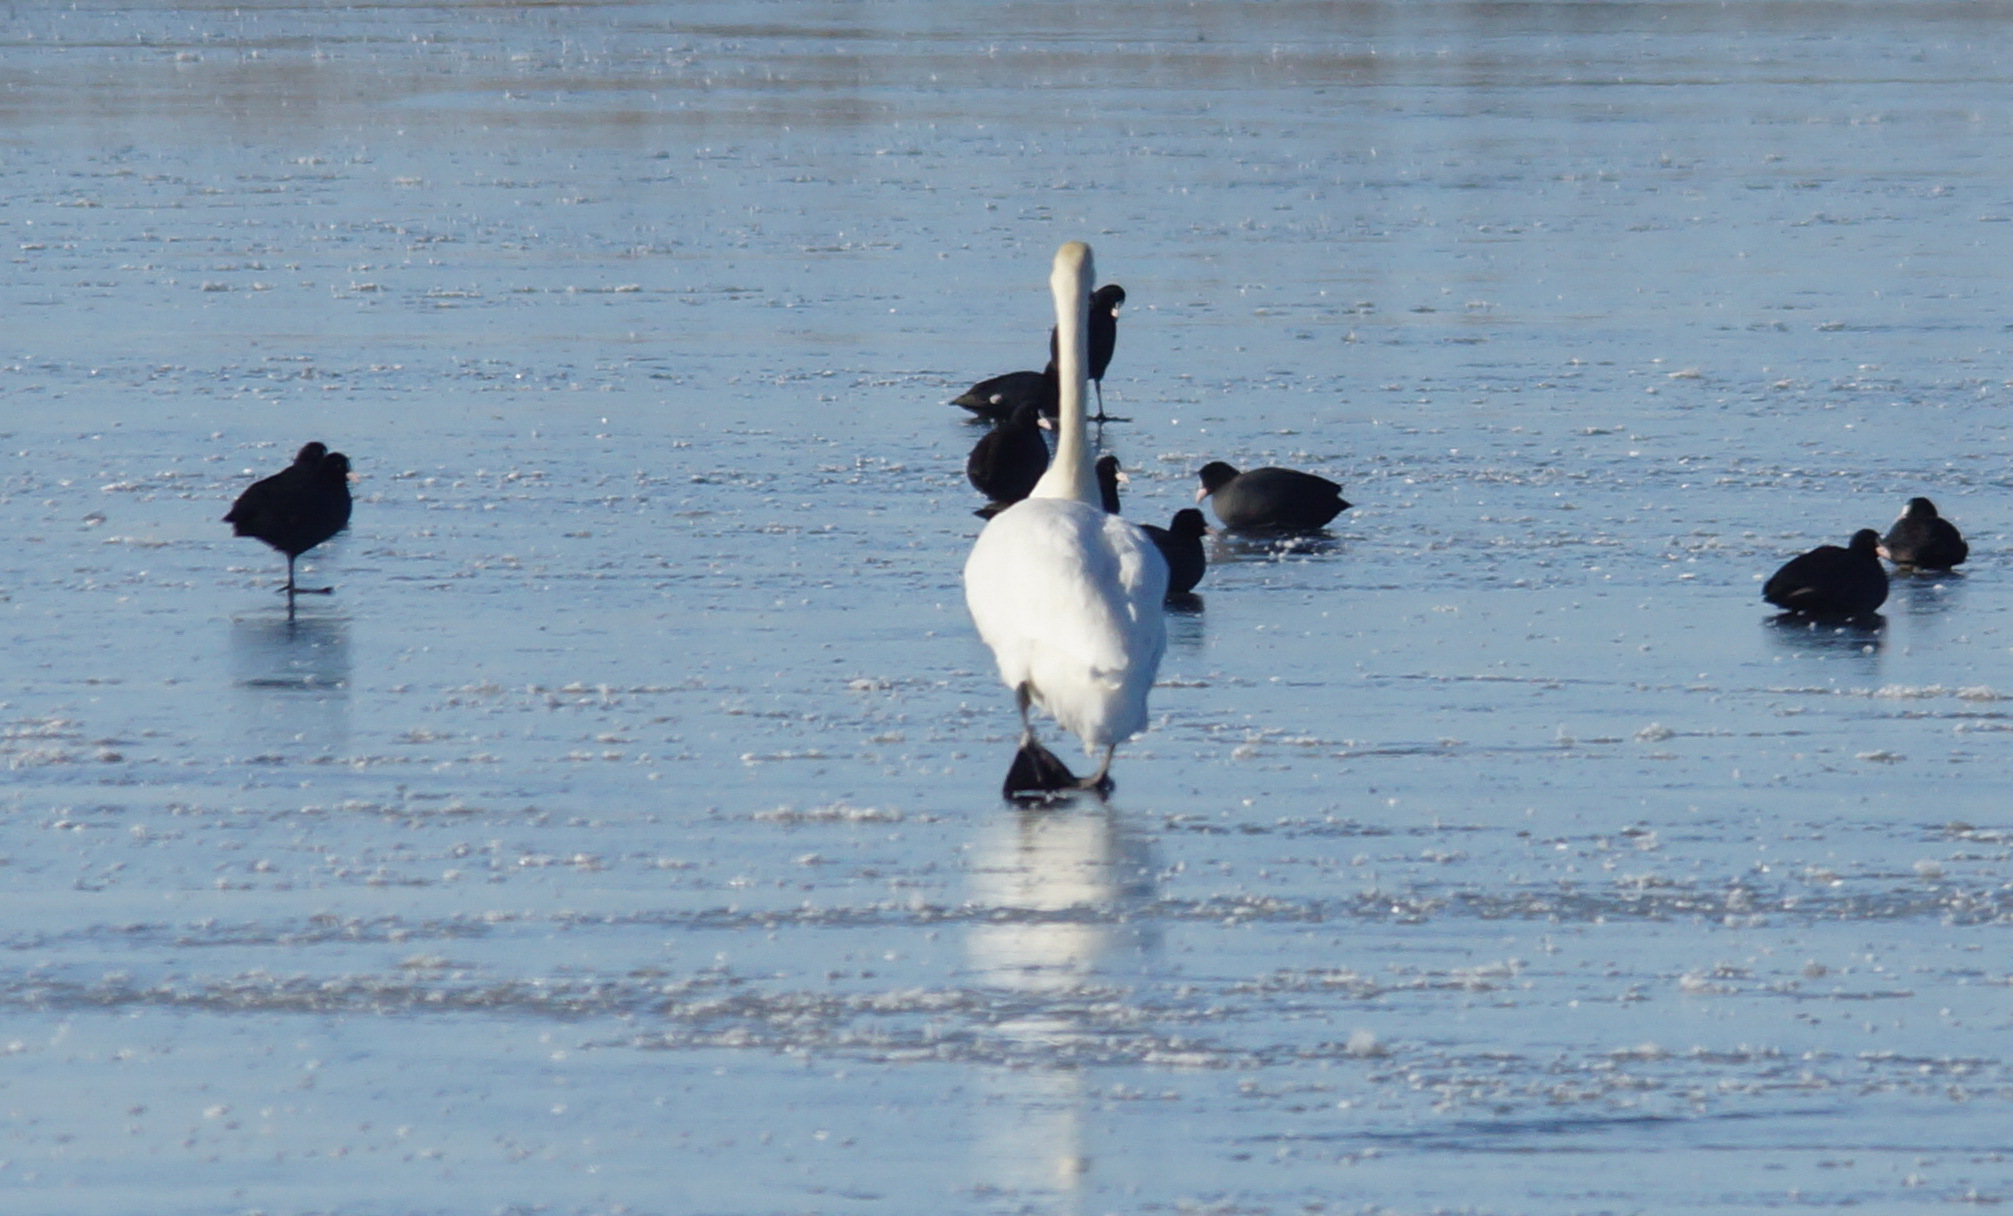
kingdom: Animalia
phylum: Chordata
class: Aves
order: Gruiformes
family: Rallidae
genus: Fulica
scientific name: Fulica atra
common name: Eurasian coot
